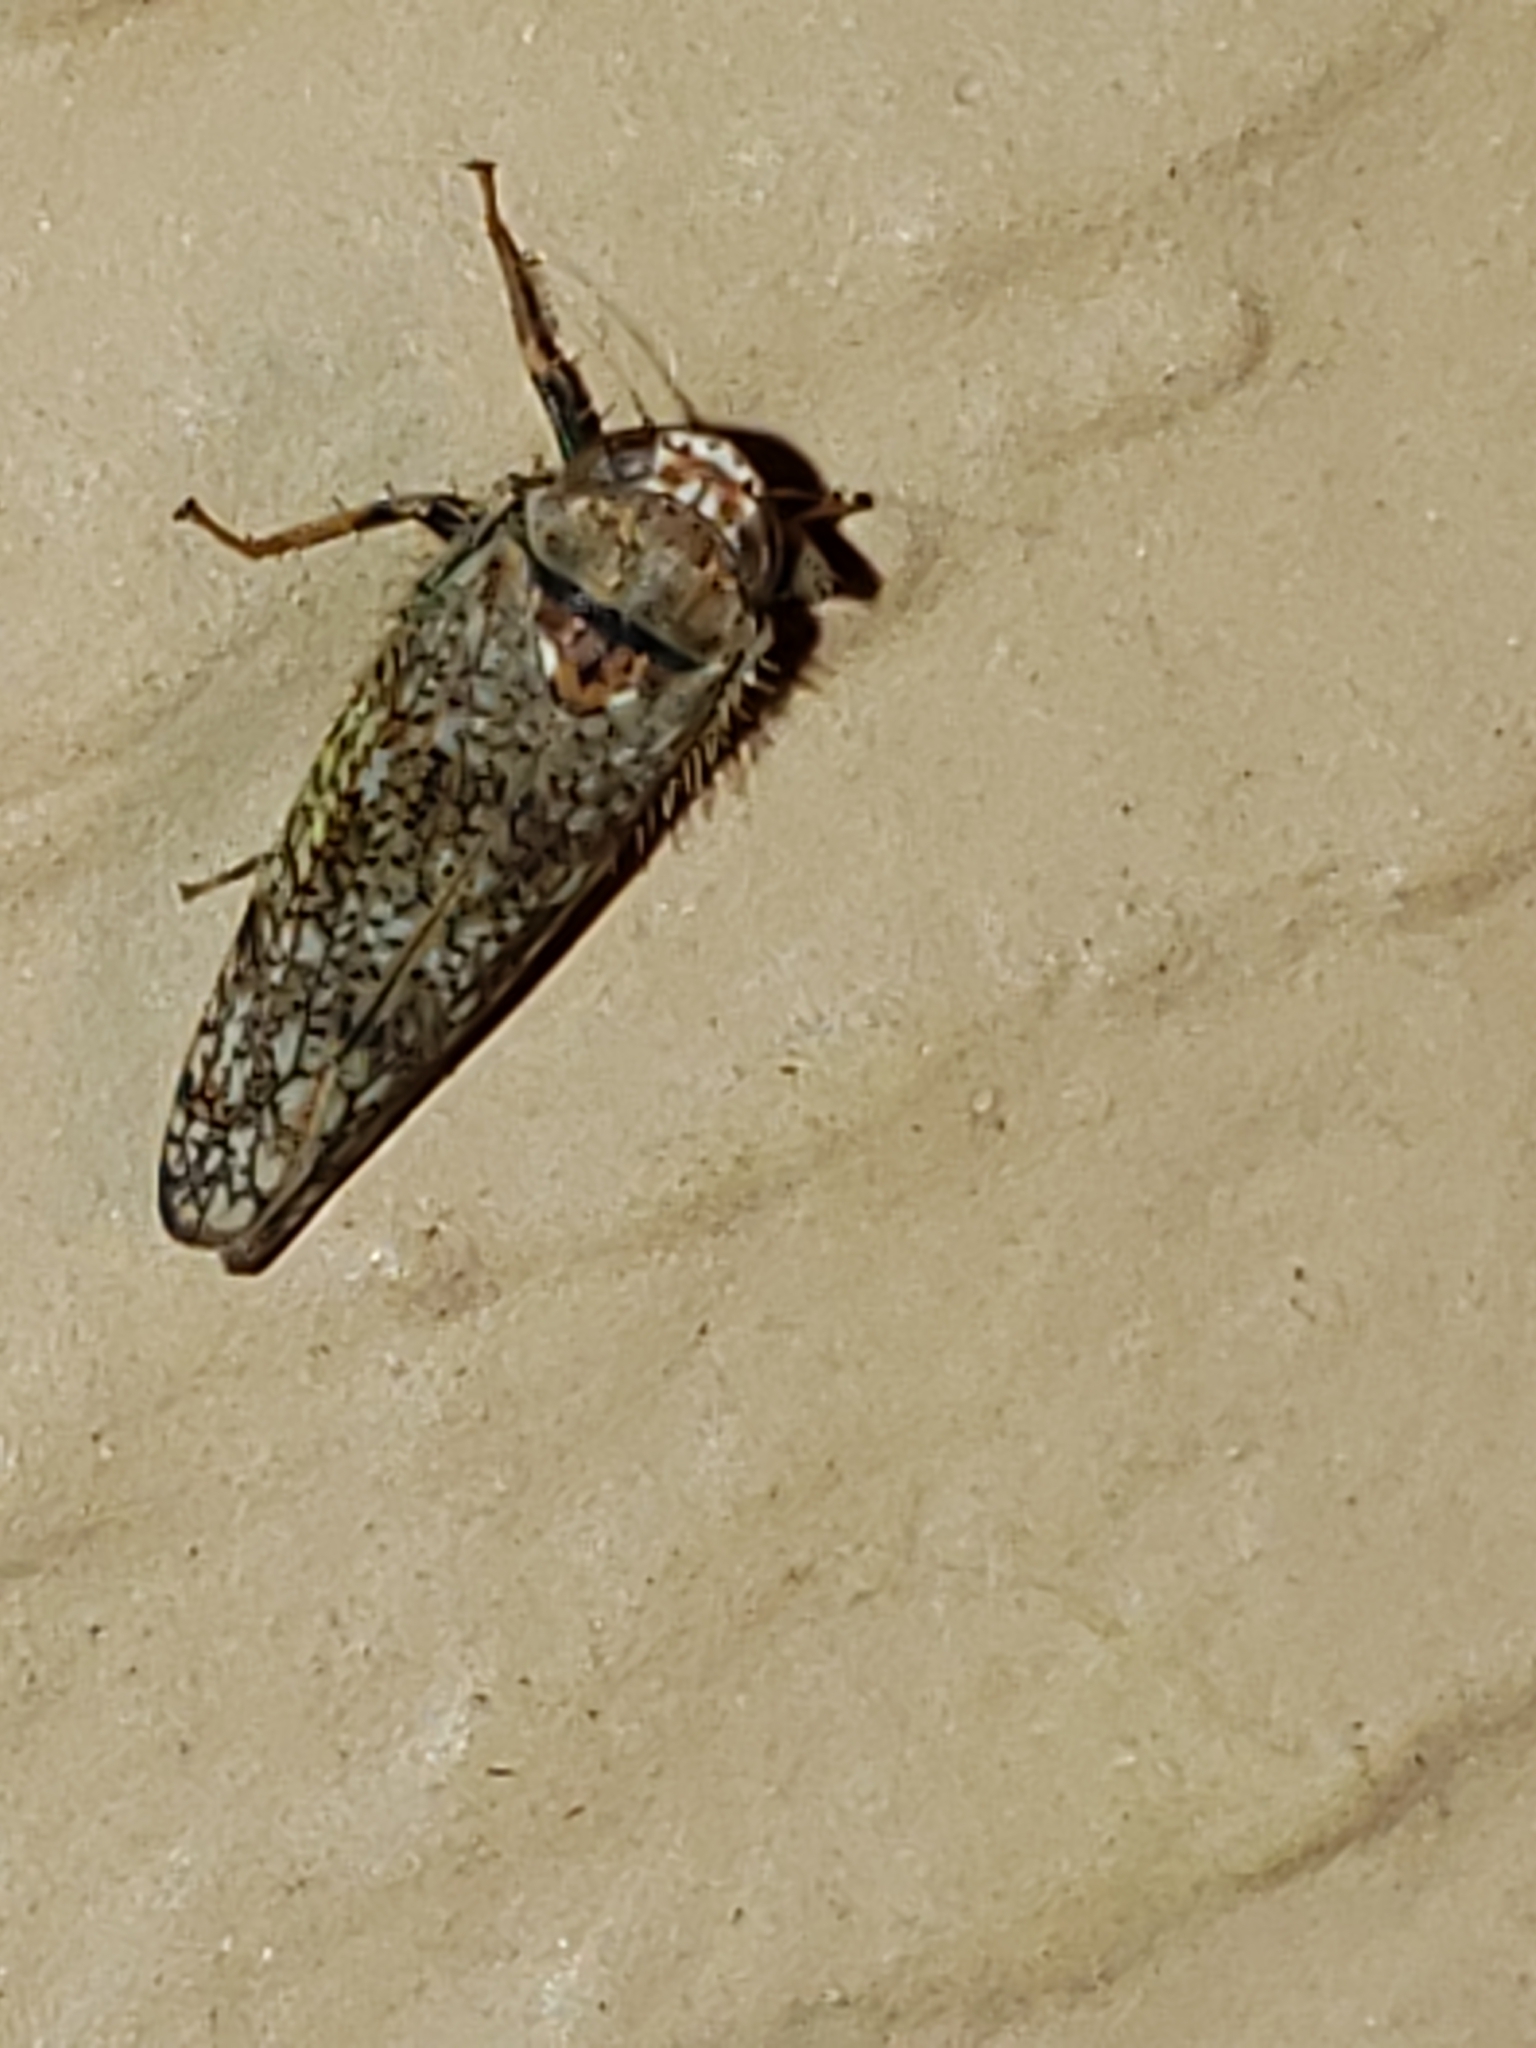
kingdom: Animalia
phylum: Arthropoda
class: Insecta
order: Hemiptera
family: Cicadellidae
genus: Orientus
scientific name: Orientus ishidae
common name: Japanese leafhopper
